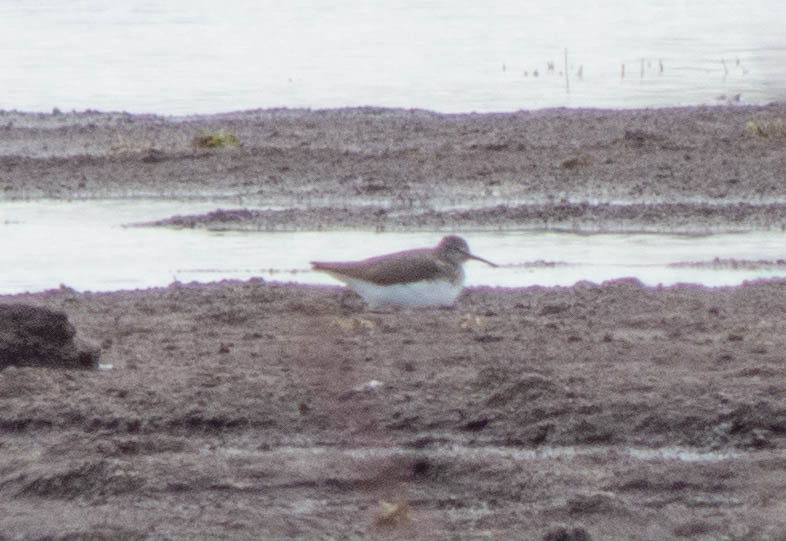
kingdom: Animalia
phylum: Chordata
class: Aves
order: Charadriiformes
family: Scolopacidae
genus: Tringa
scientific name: Tringa ochropus
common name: Green sandpiper
